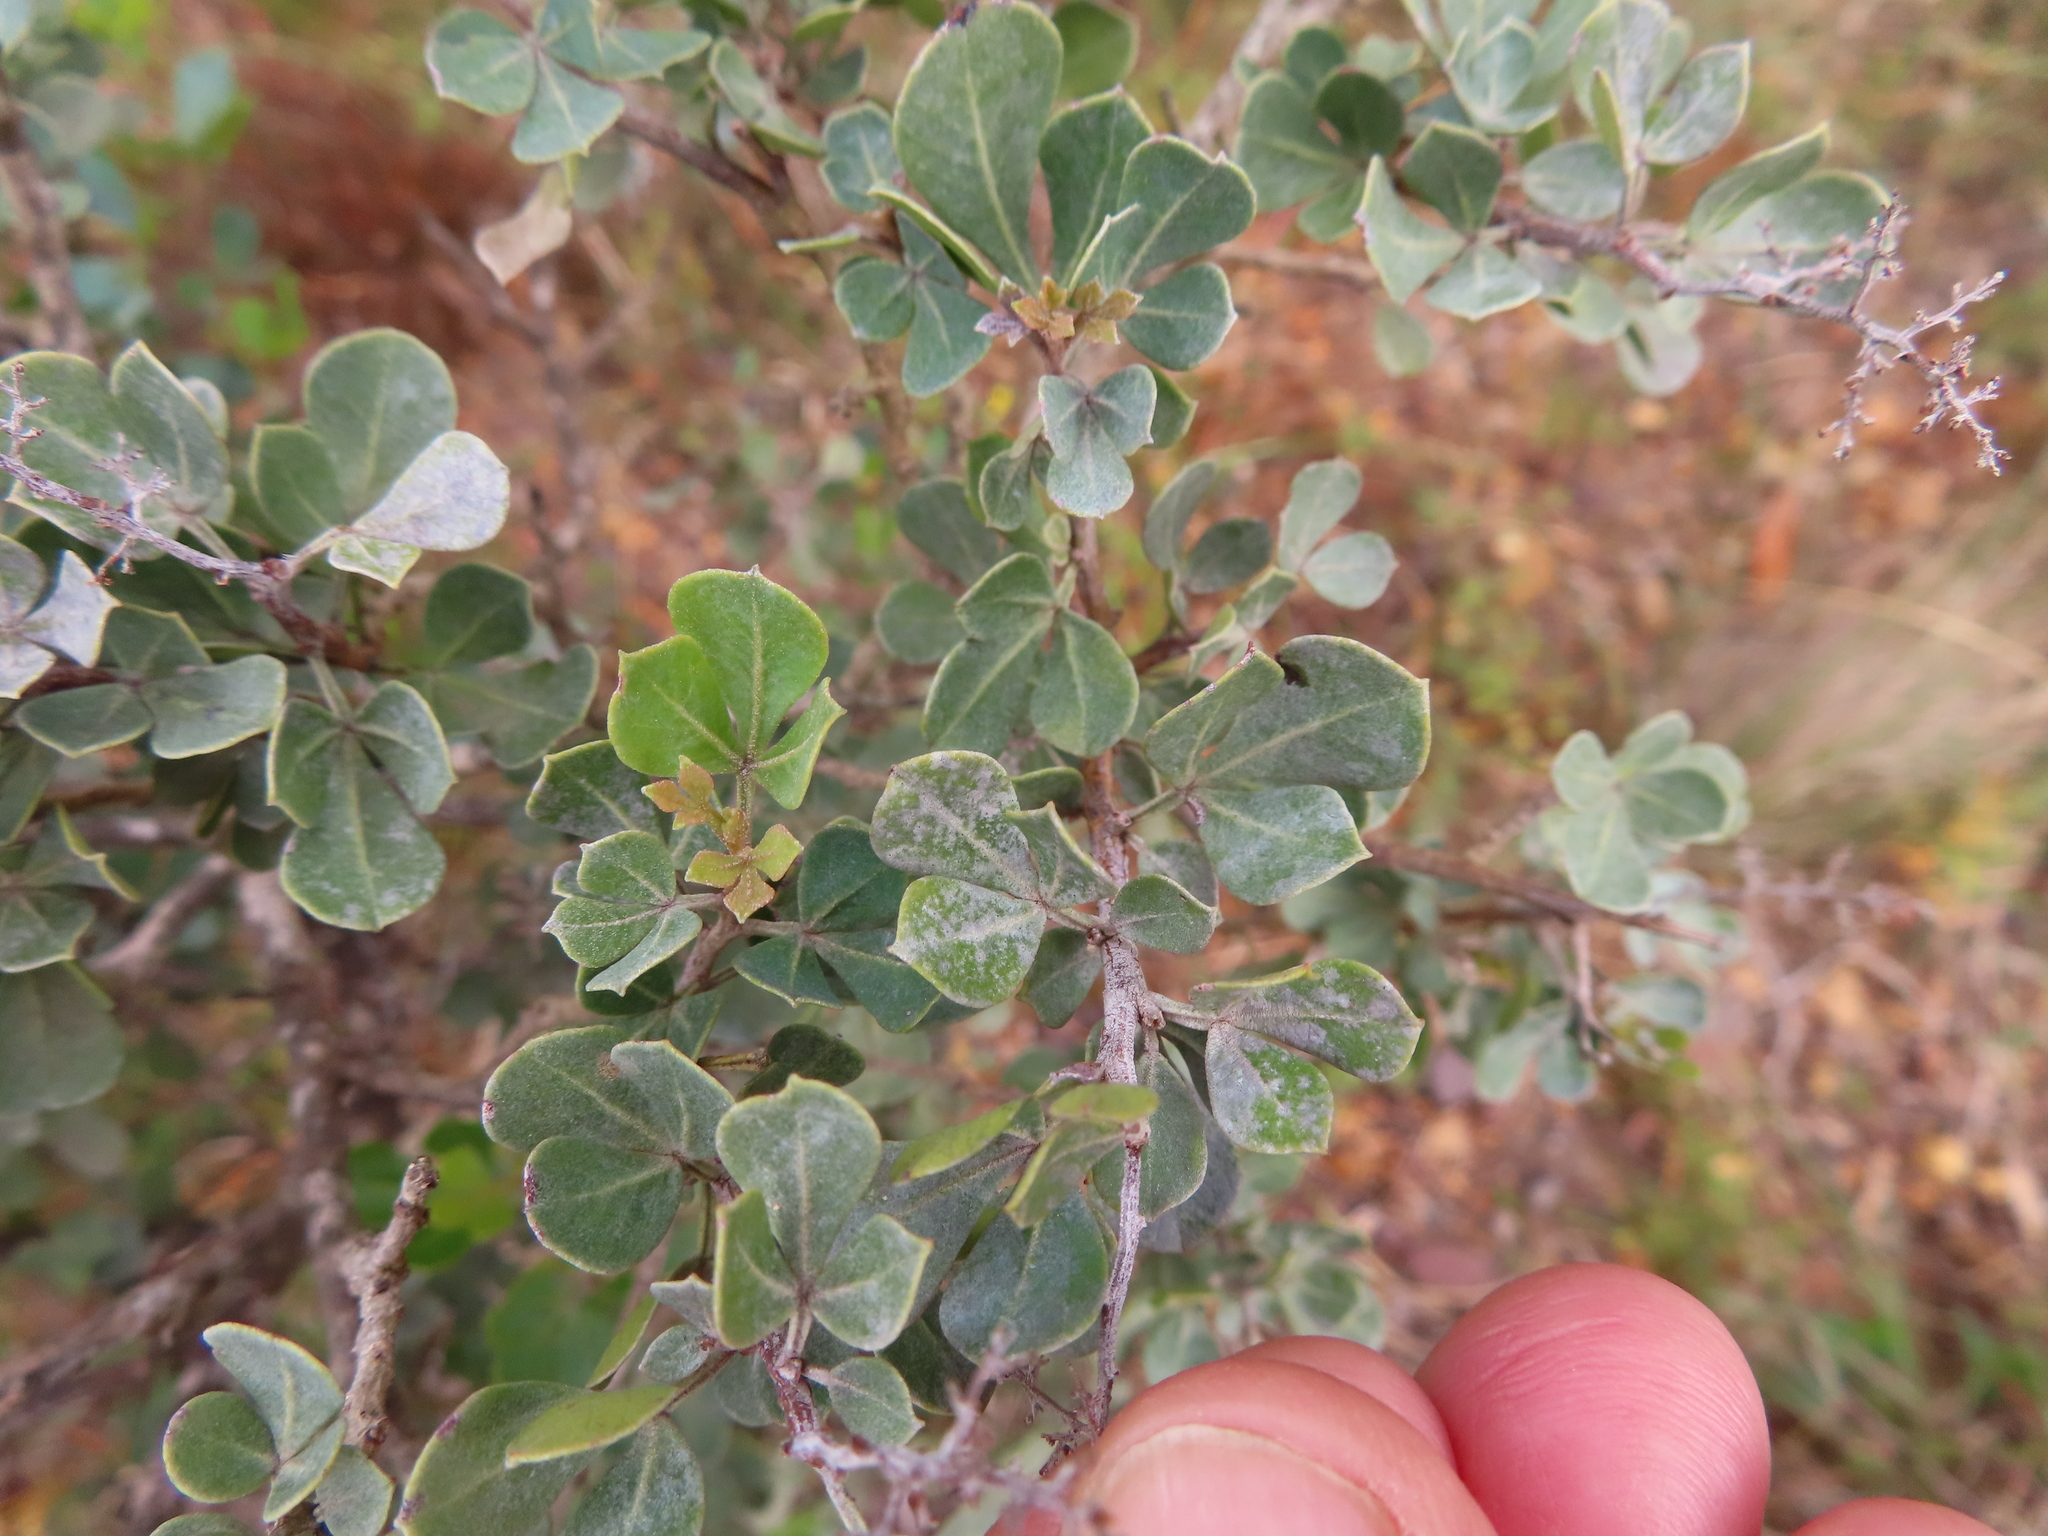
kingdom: Plantae
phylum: Tracheophyta
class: Magnoliopsida
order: Sapindales
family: Anacardiaceae
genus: Searsia
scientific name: Searsia glauca
